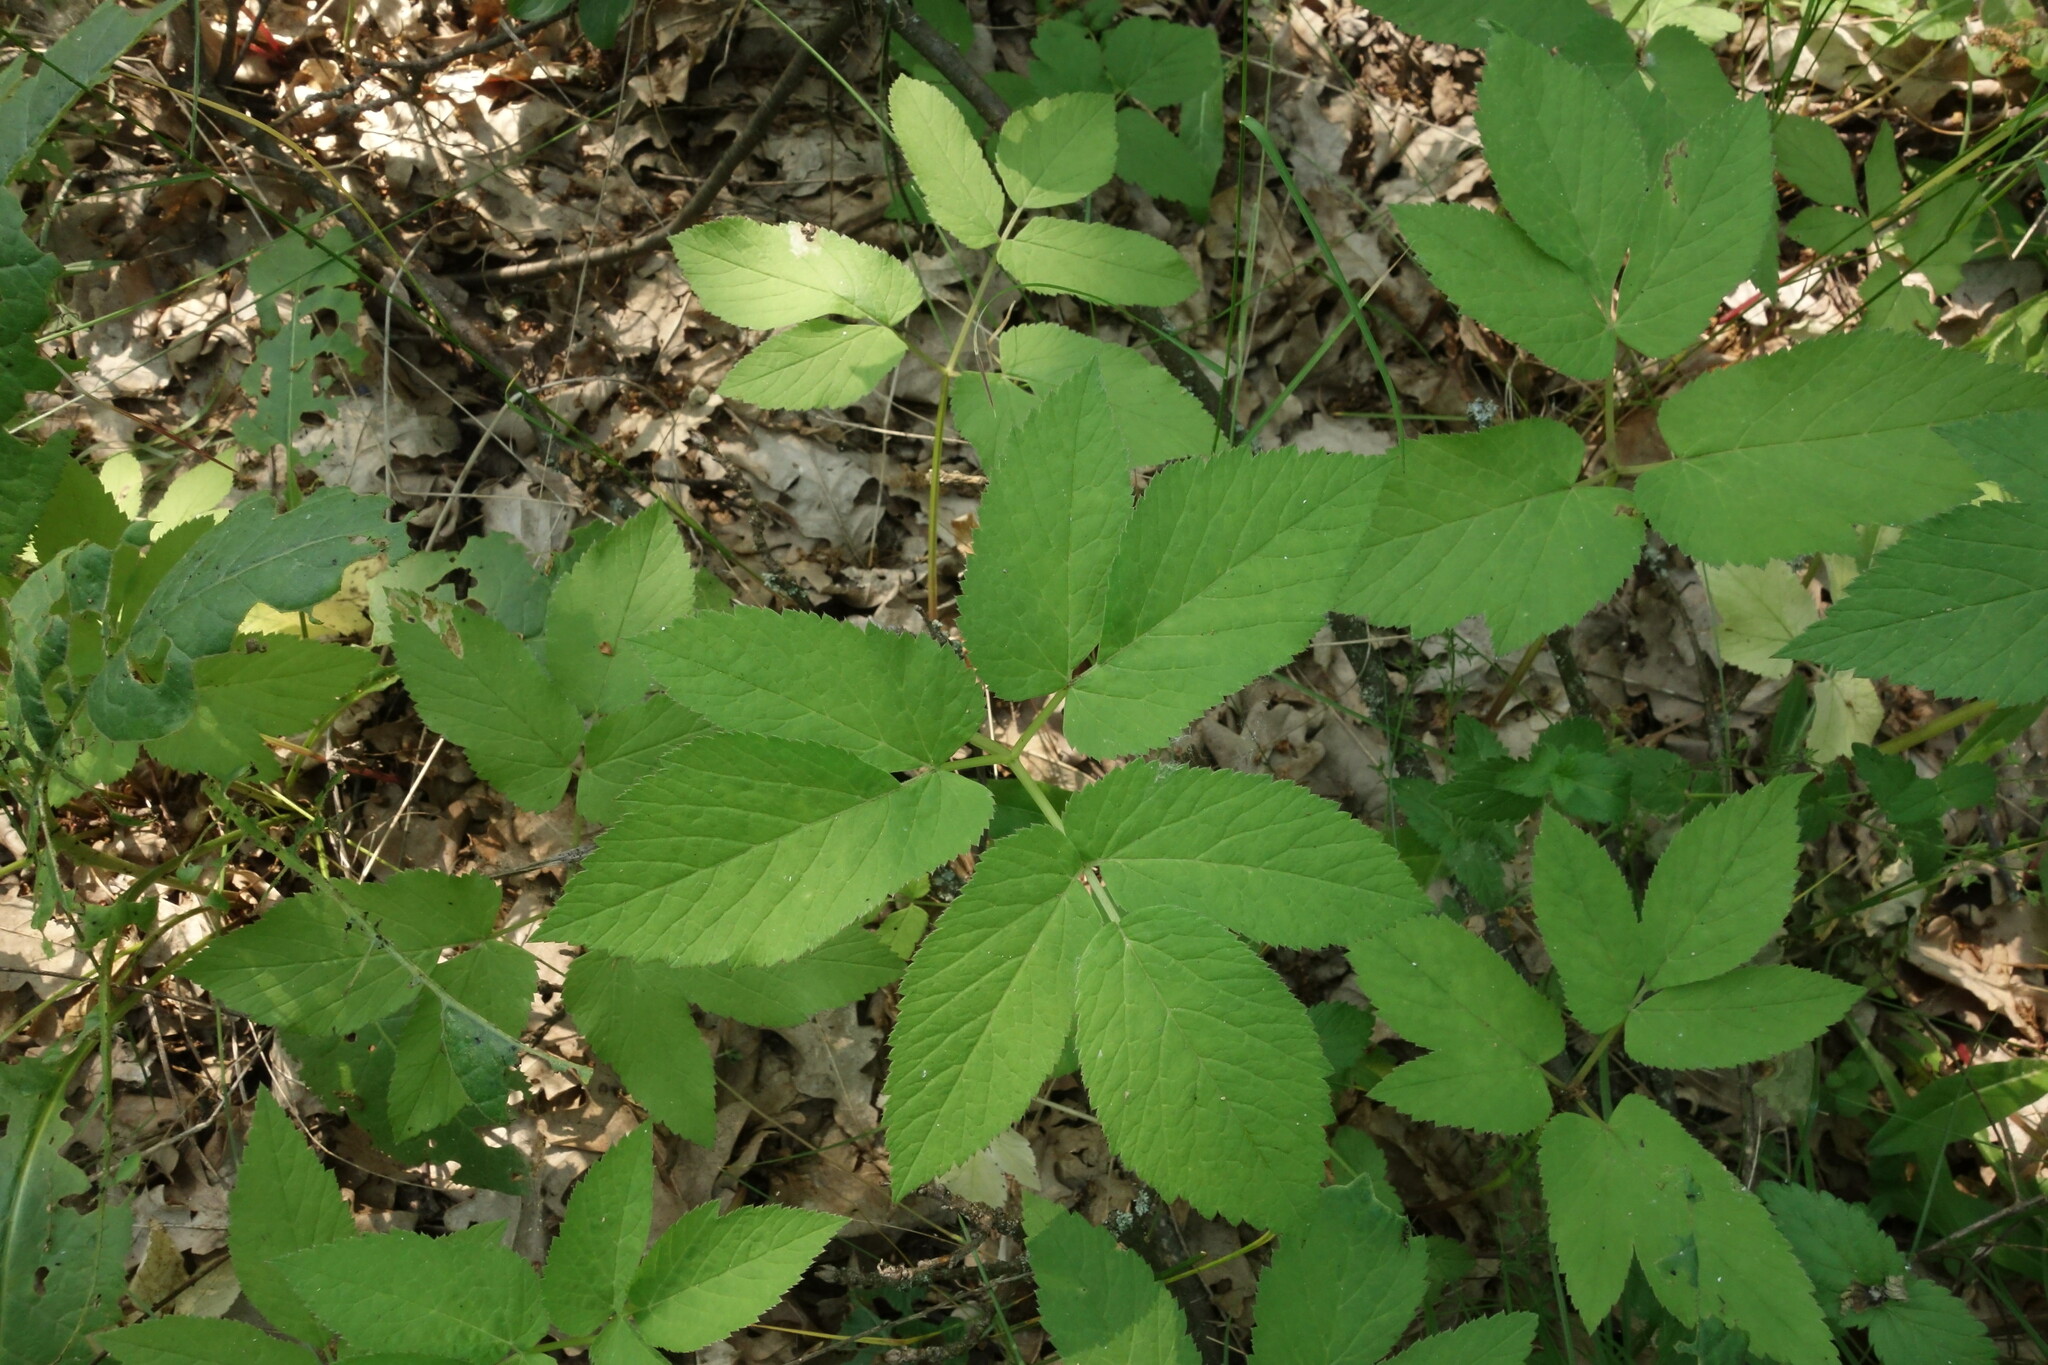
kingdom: Plantae
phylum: Tracheophyta
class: Magnoliopsida
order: Apiales
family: Apiaceae
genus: Aegopodium
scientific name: Aegopodium podagraria
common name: Ground-elder
